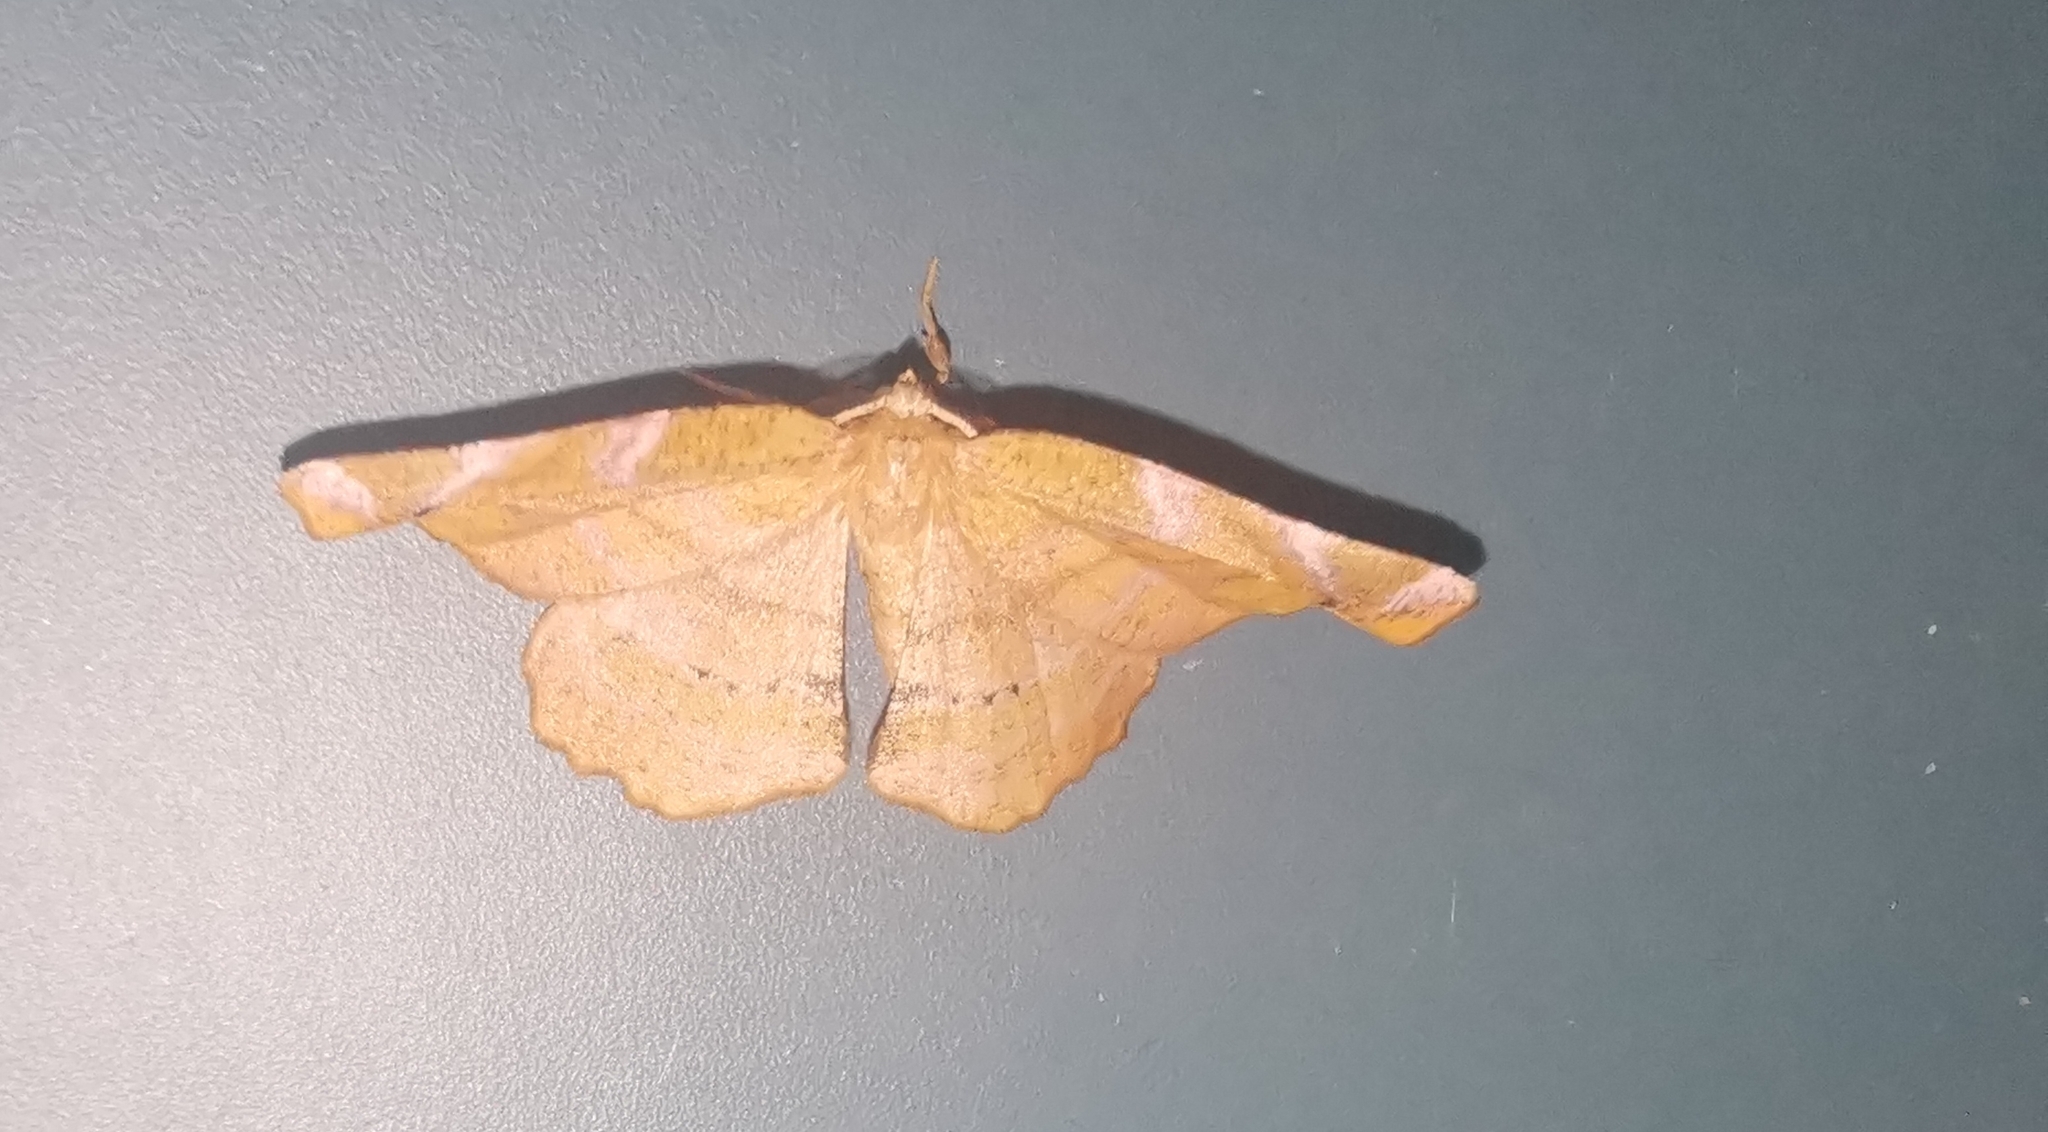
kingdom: Animalia
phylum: Arthropoda
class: Insecta
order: Lepidoptera
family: Geometridae
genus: Apeira
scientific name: Apeira syringaria
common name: Lilac beauty
